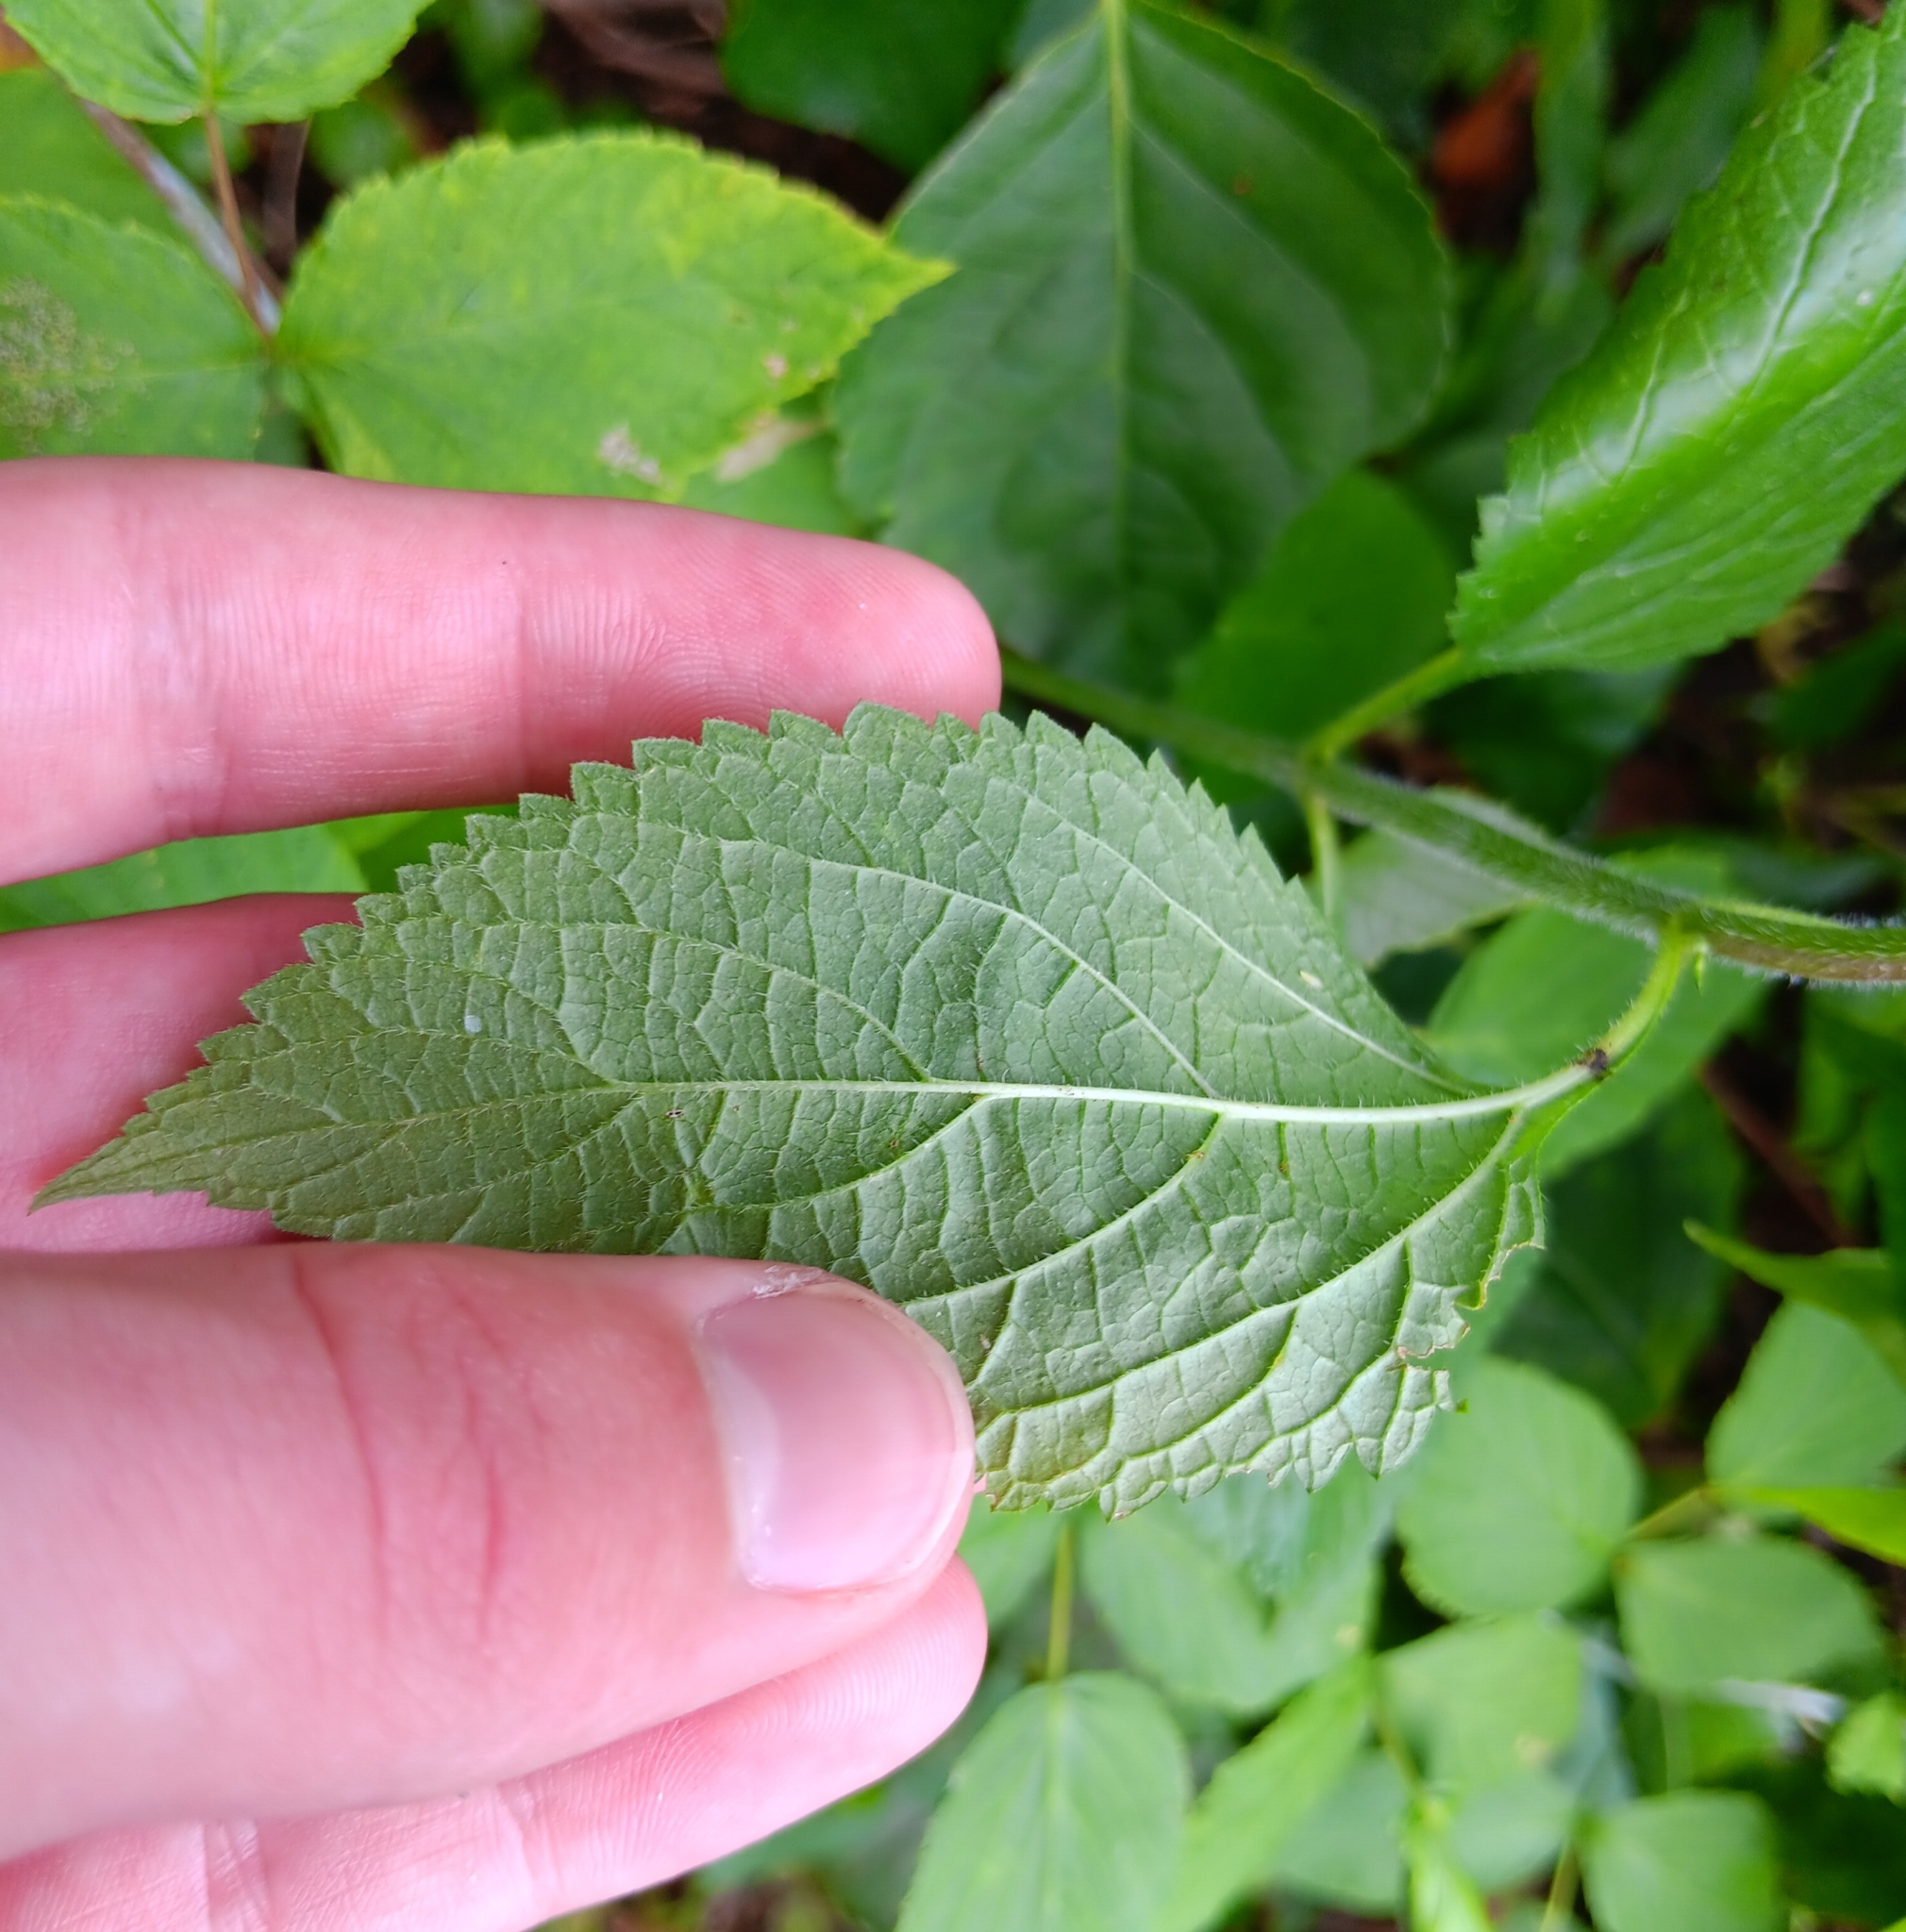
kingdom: Plantae
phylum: Tracheophyta
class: Magnoliopsida
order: Lamiales
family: Verbenaceae
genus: Verbena
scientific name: Verbena urticifolia
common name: Nettle-leaved vervain
